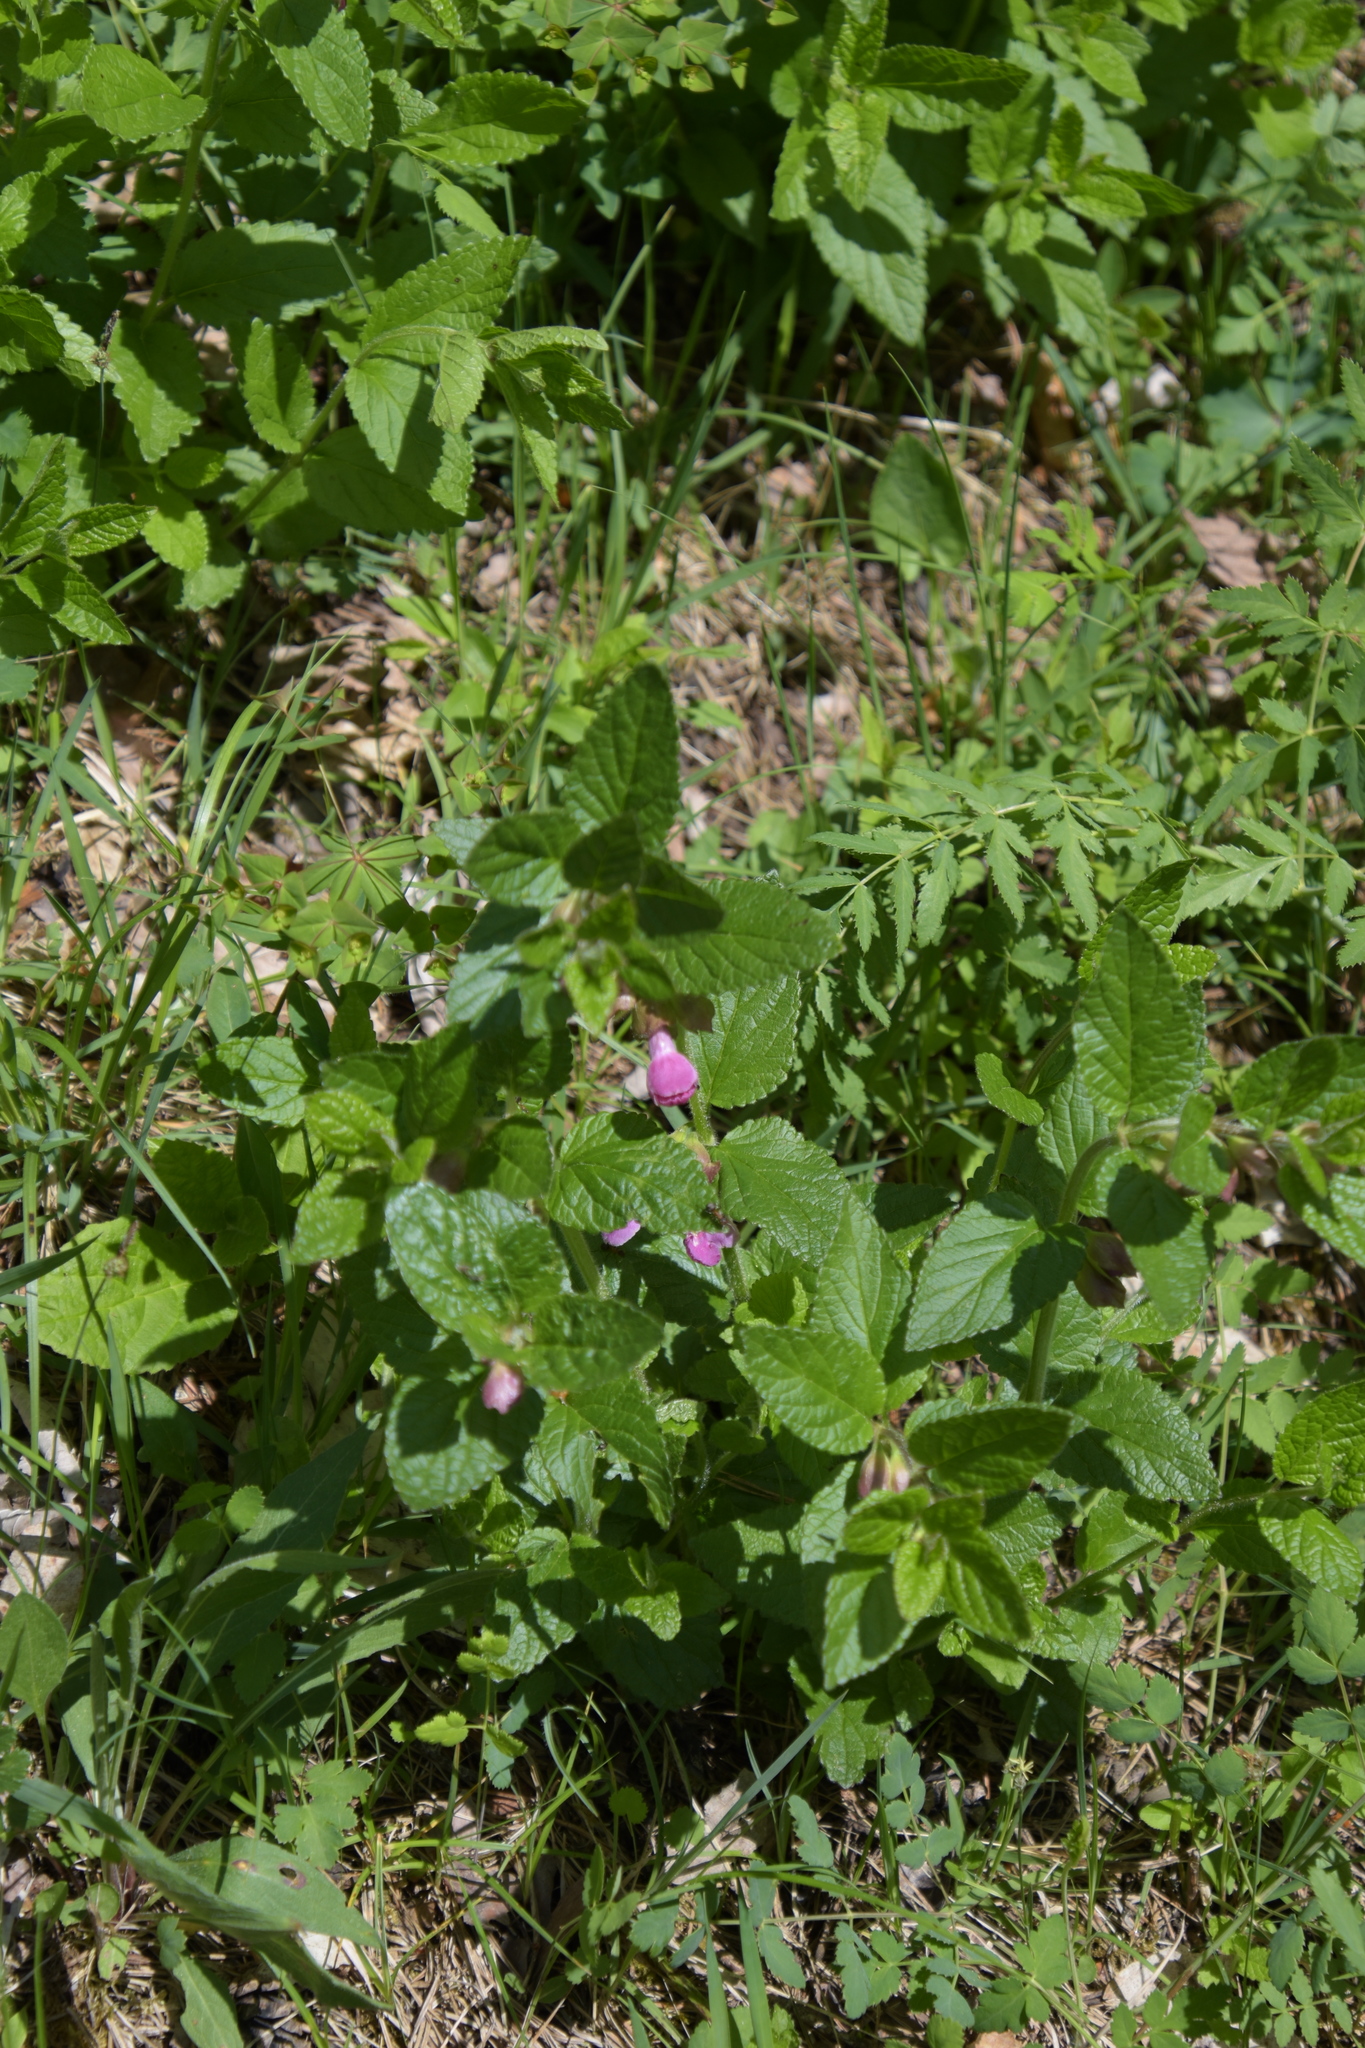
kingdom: Plantae
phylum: Tracheophyta
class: Magnoliopsida
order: Lamiales
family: Lamiaceae
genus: Melittis
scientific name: Melittis melissophyllum
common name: Bastard balm
